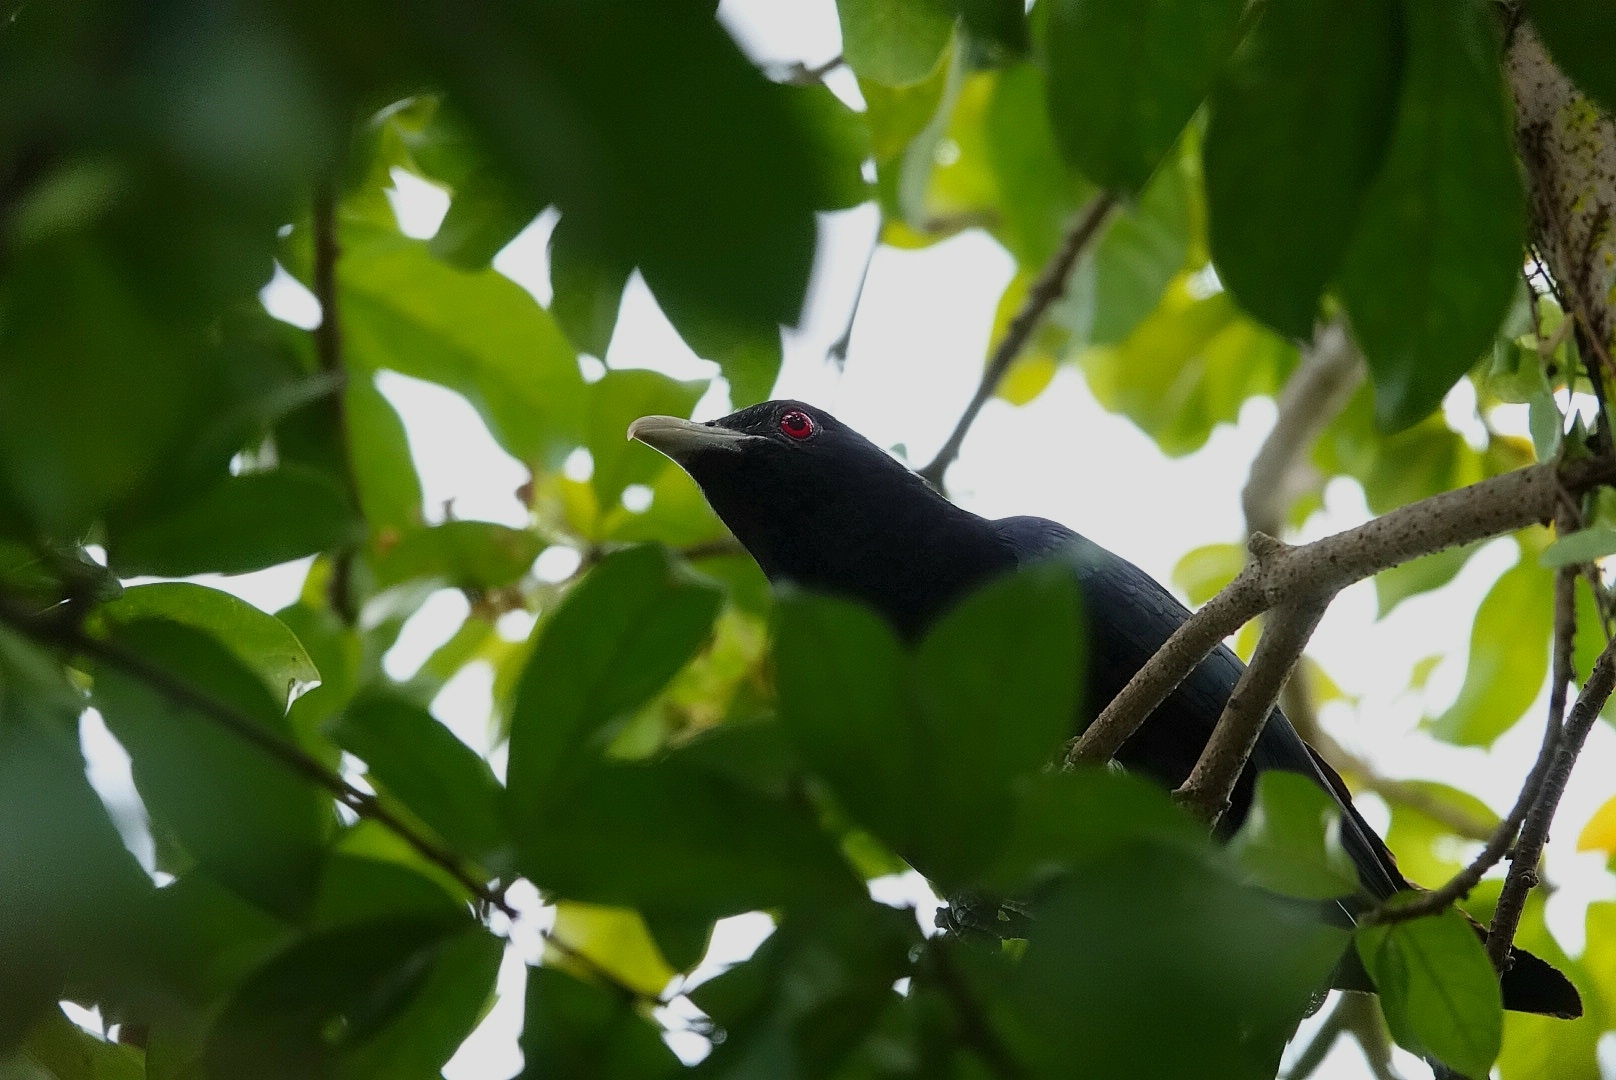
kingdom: Animalia
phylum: Chordata
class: Aves
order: Cuculiformes
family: Cuculidae
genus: Eudynamys
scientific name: Eudynamys scolopaceus
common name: Asian koel
